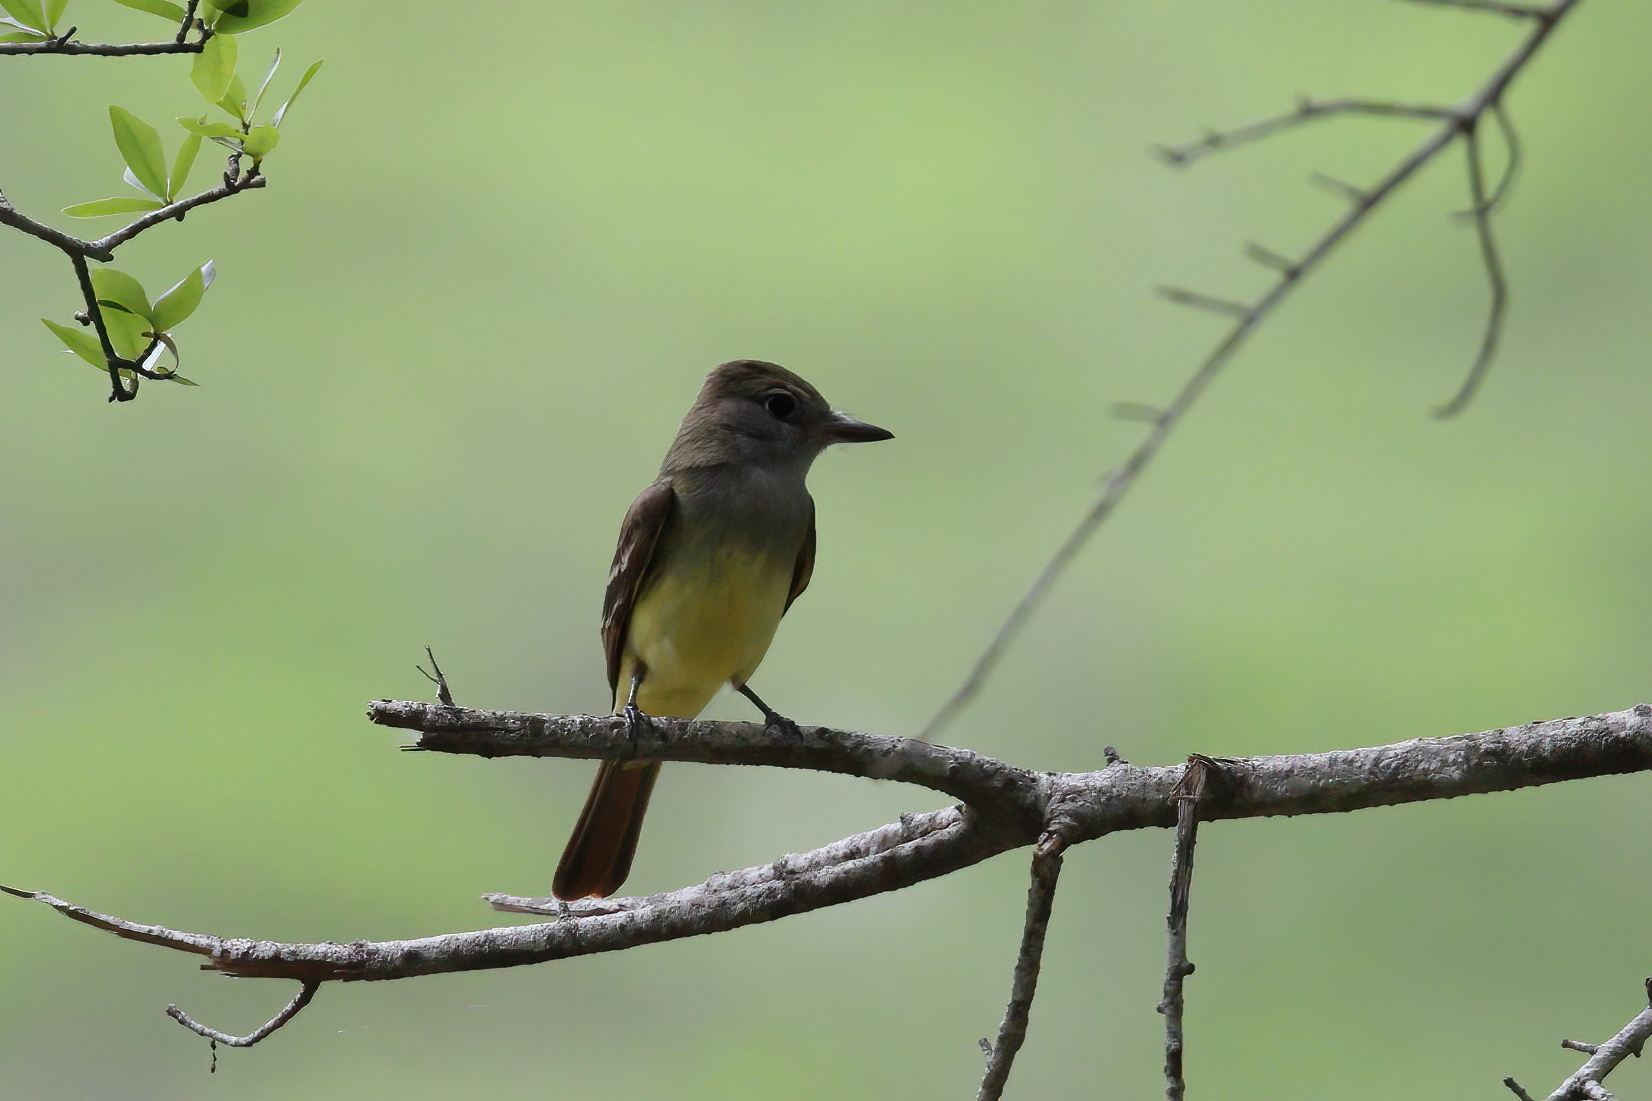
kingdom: Animalia
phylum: Chordata
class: Aves
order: Passeriformes
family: Tyrannidae
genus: Myiarchus
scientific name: Myiarchus crinitus
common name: Great crested flycatcher
